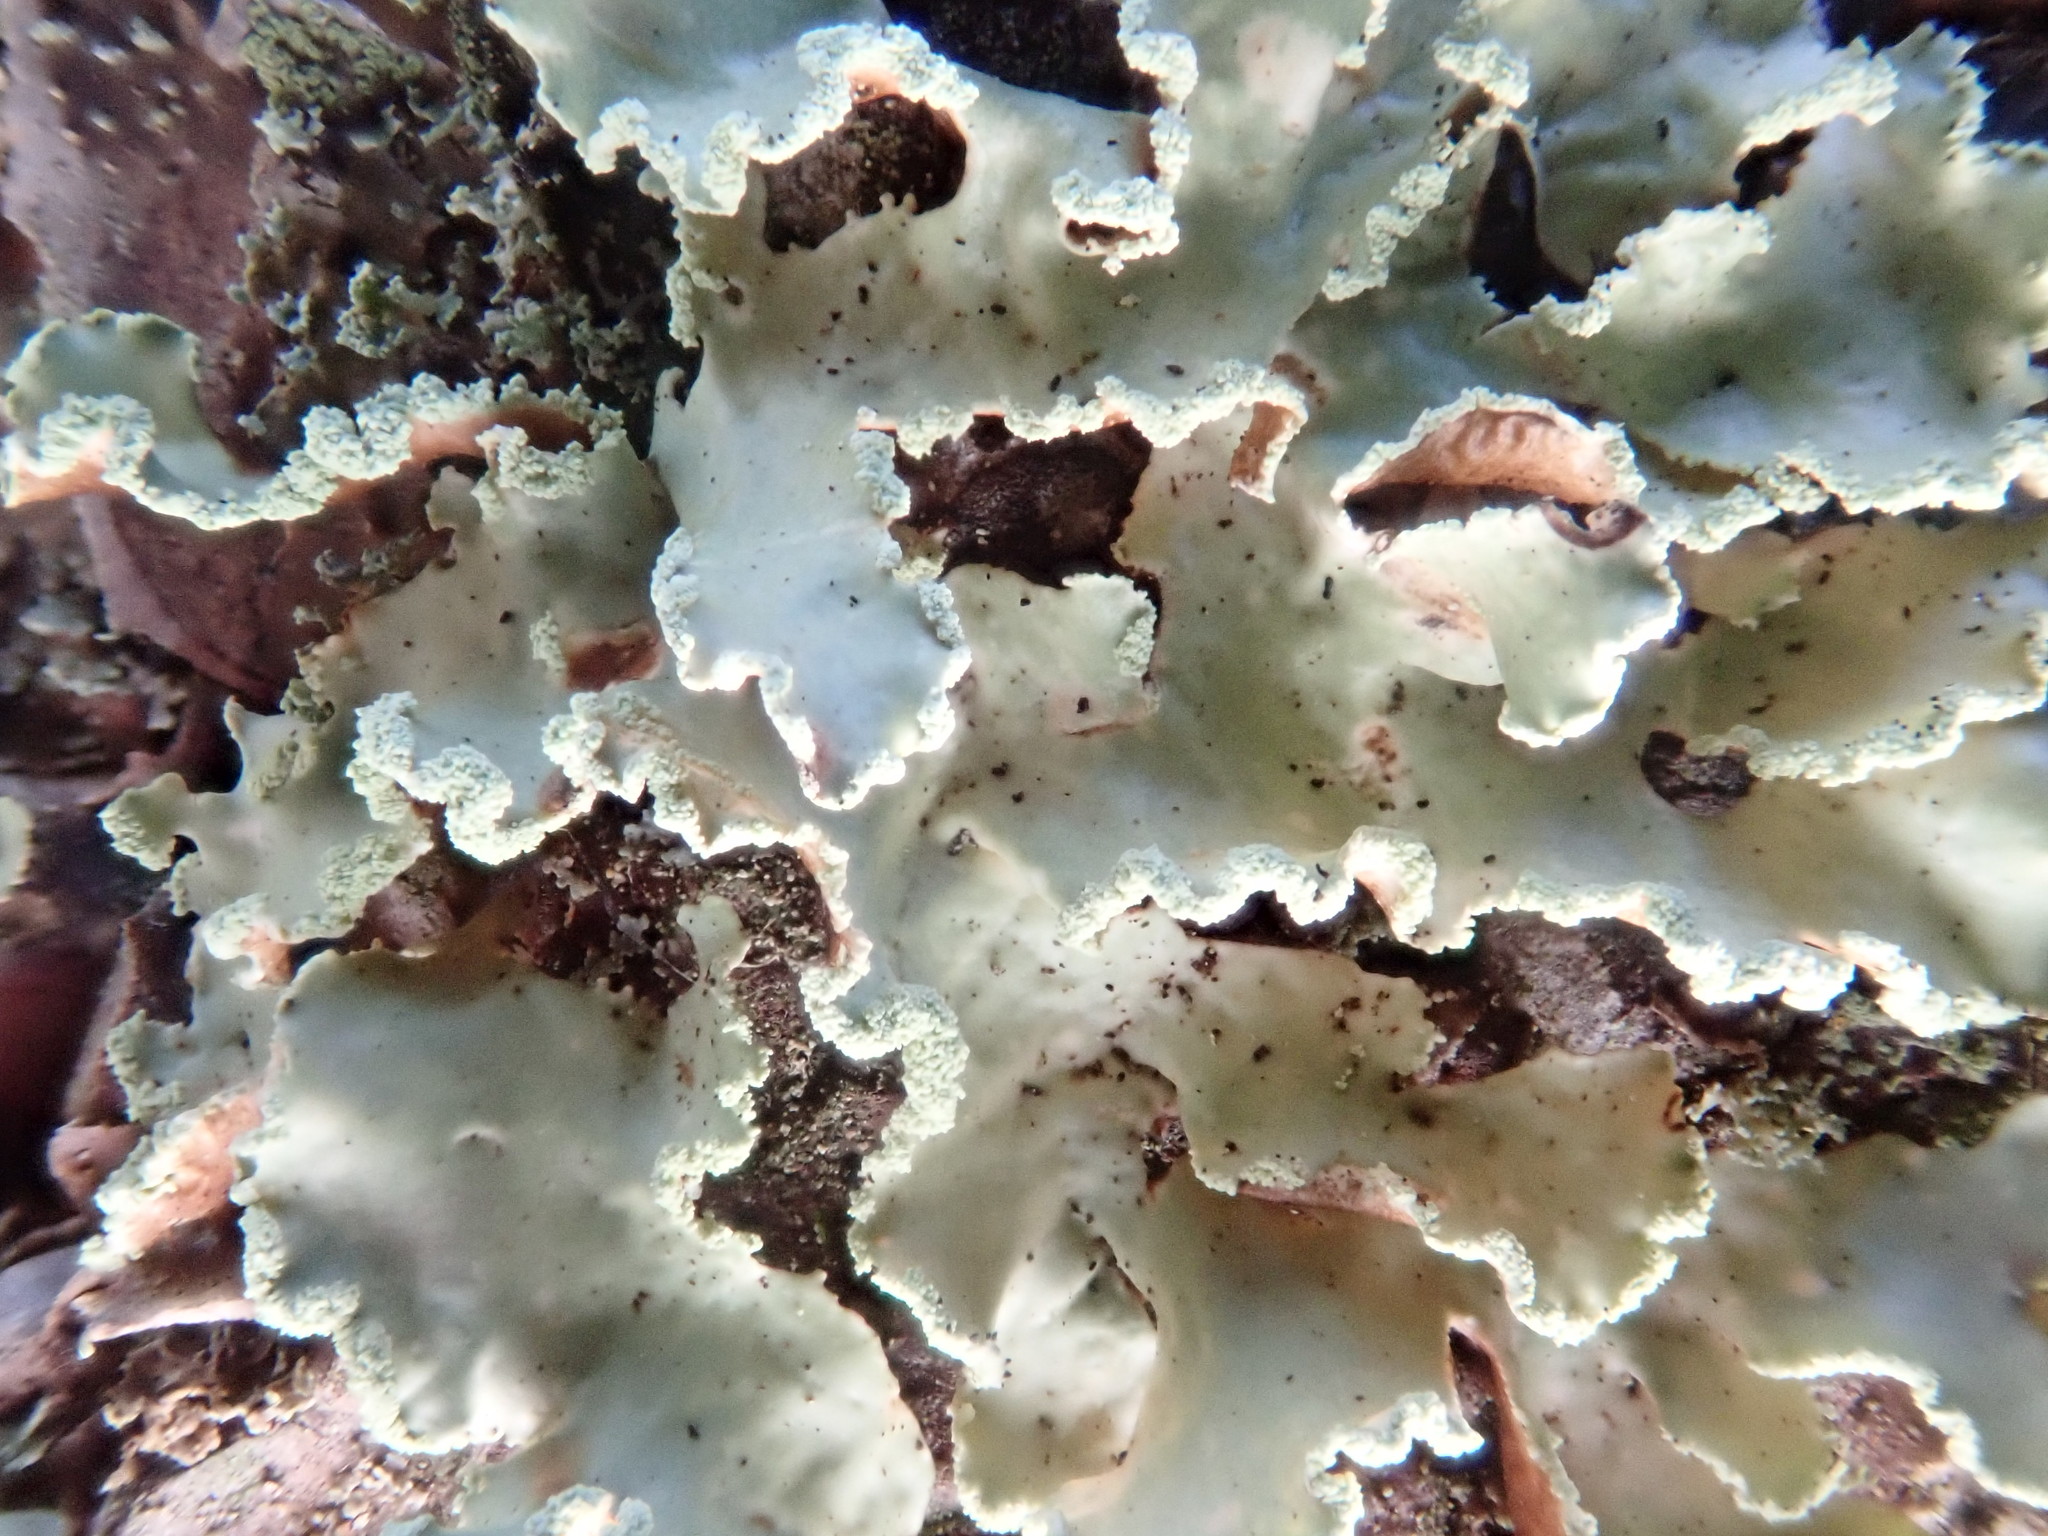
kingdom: Fungi
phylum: Ascomycota
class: Lecanoromycetes
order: Lecanorales
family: Parmeliaceae
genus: Usnocetraria
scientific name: Usnocetraria oakesiana
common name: Yellow ribbon lichen
